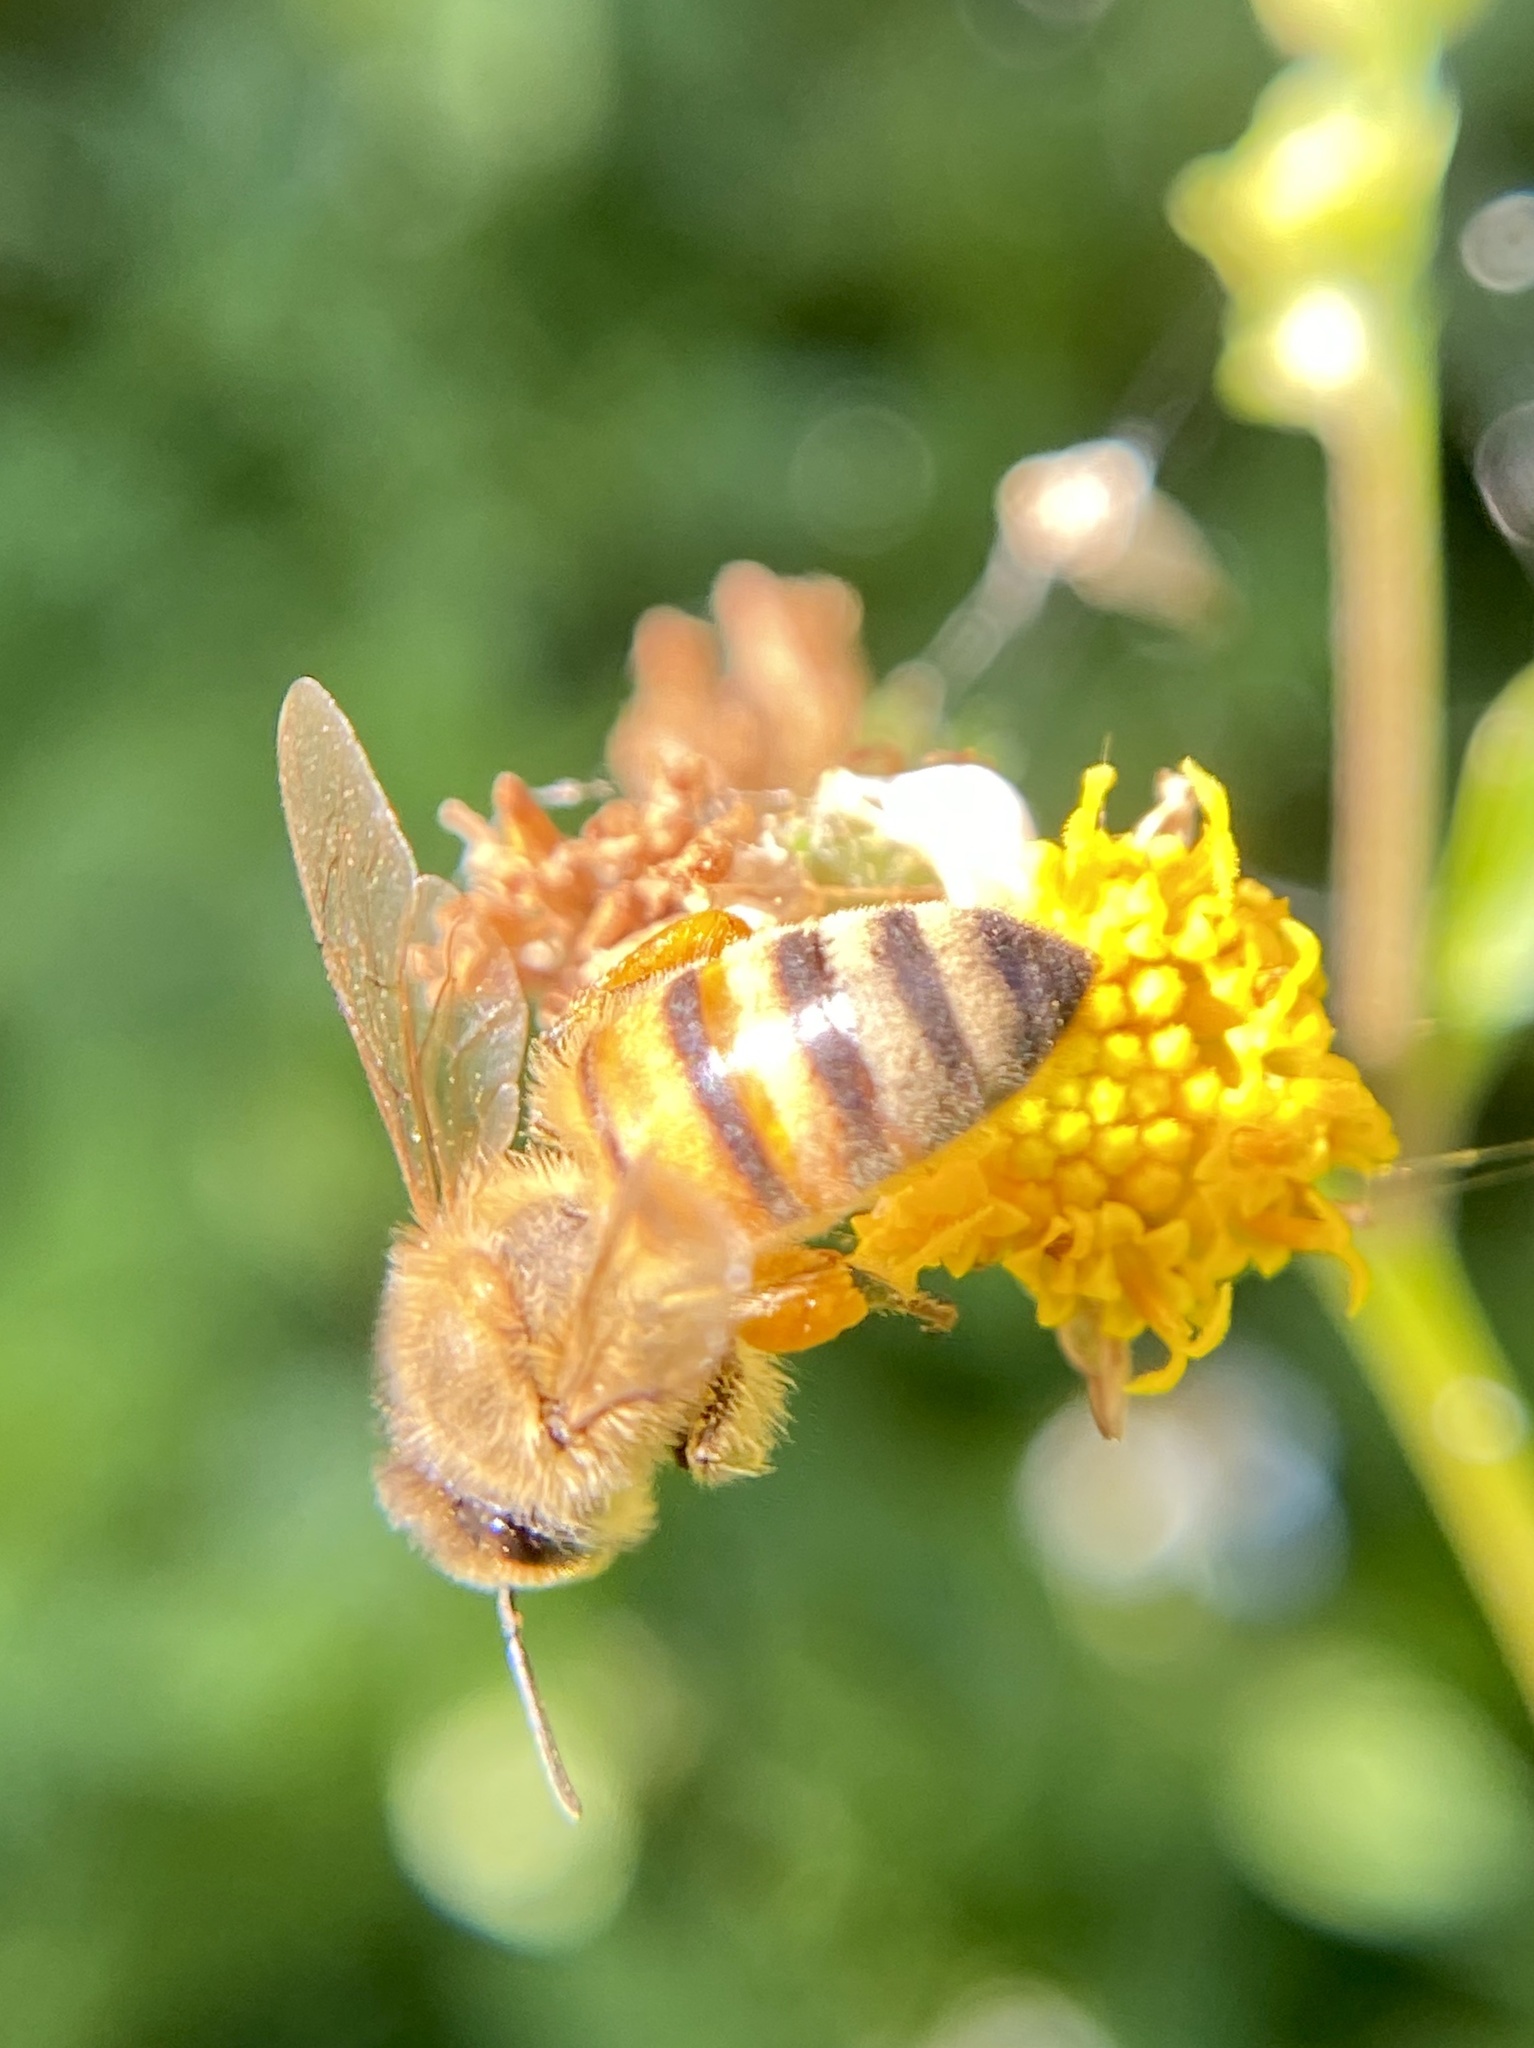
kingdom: Animalia
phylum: Arthropoda
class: Insecta
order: Hymenoptera
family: Apidae
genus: Apis
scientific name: Apis mellifera
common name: Honey bee
